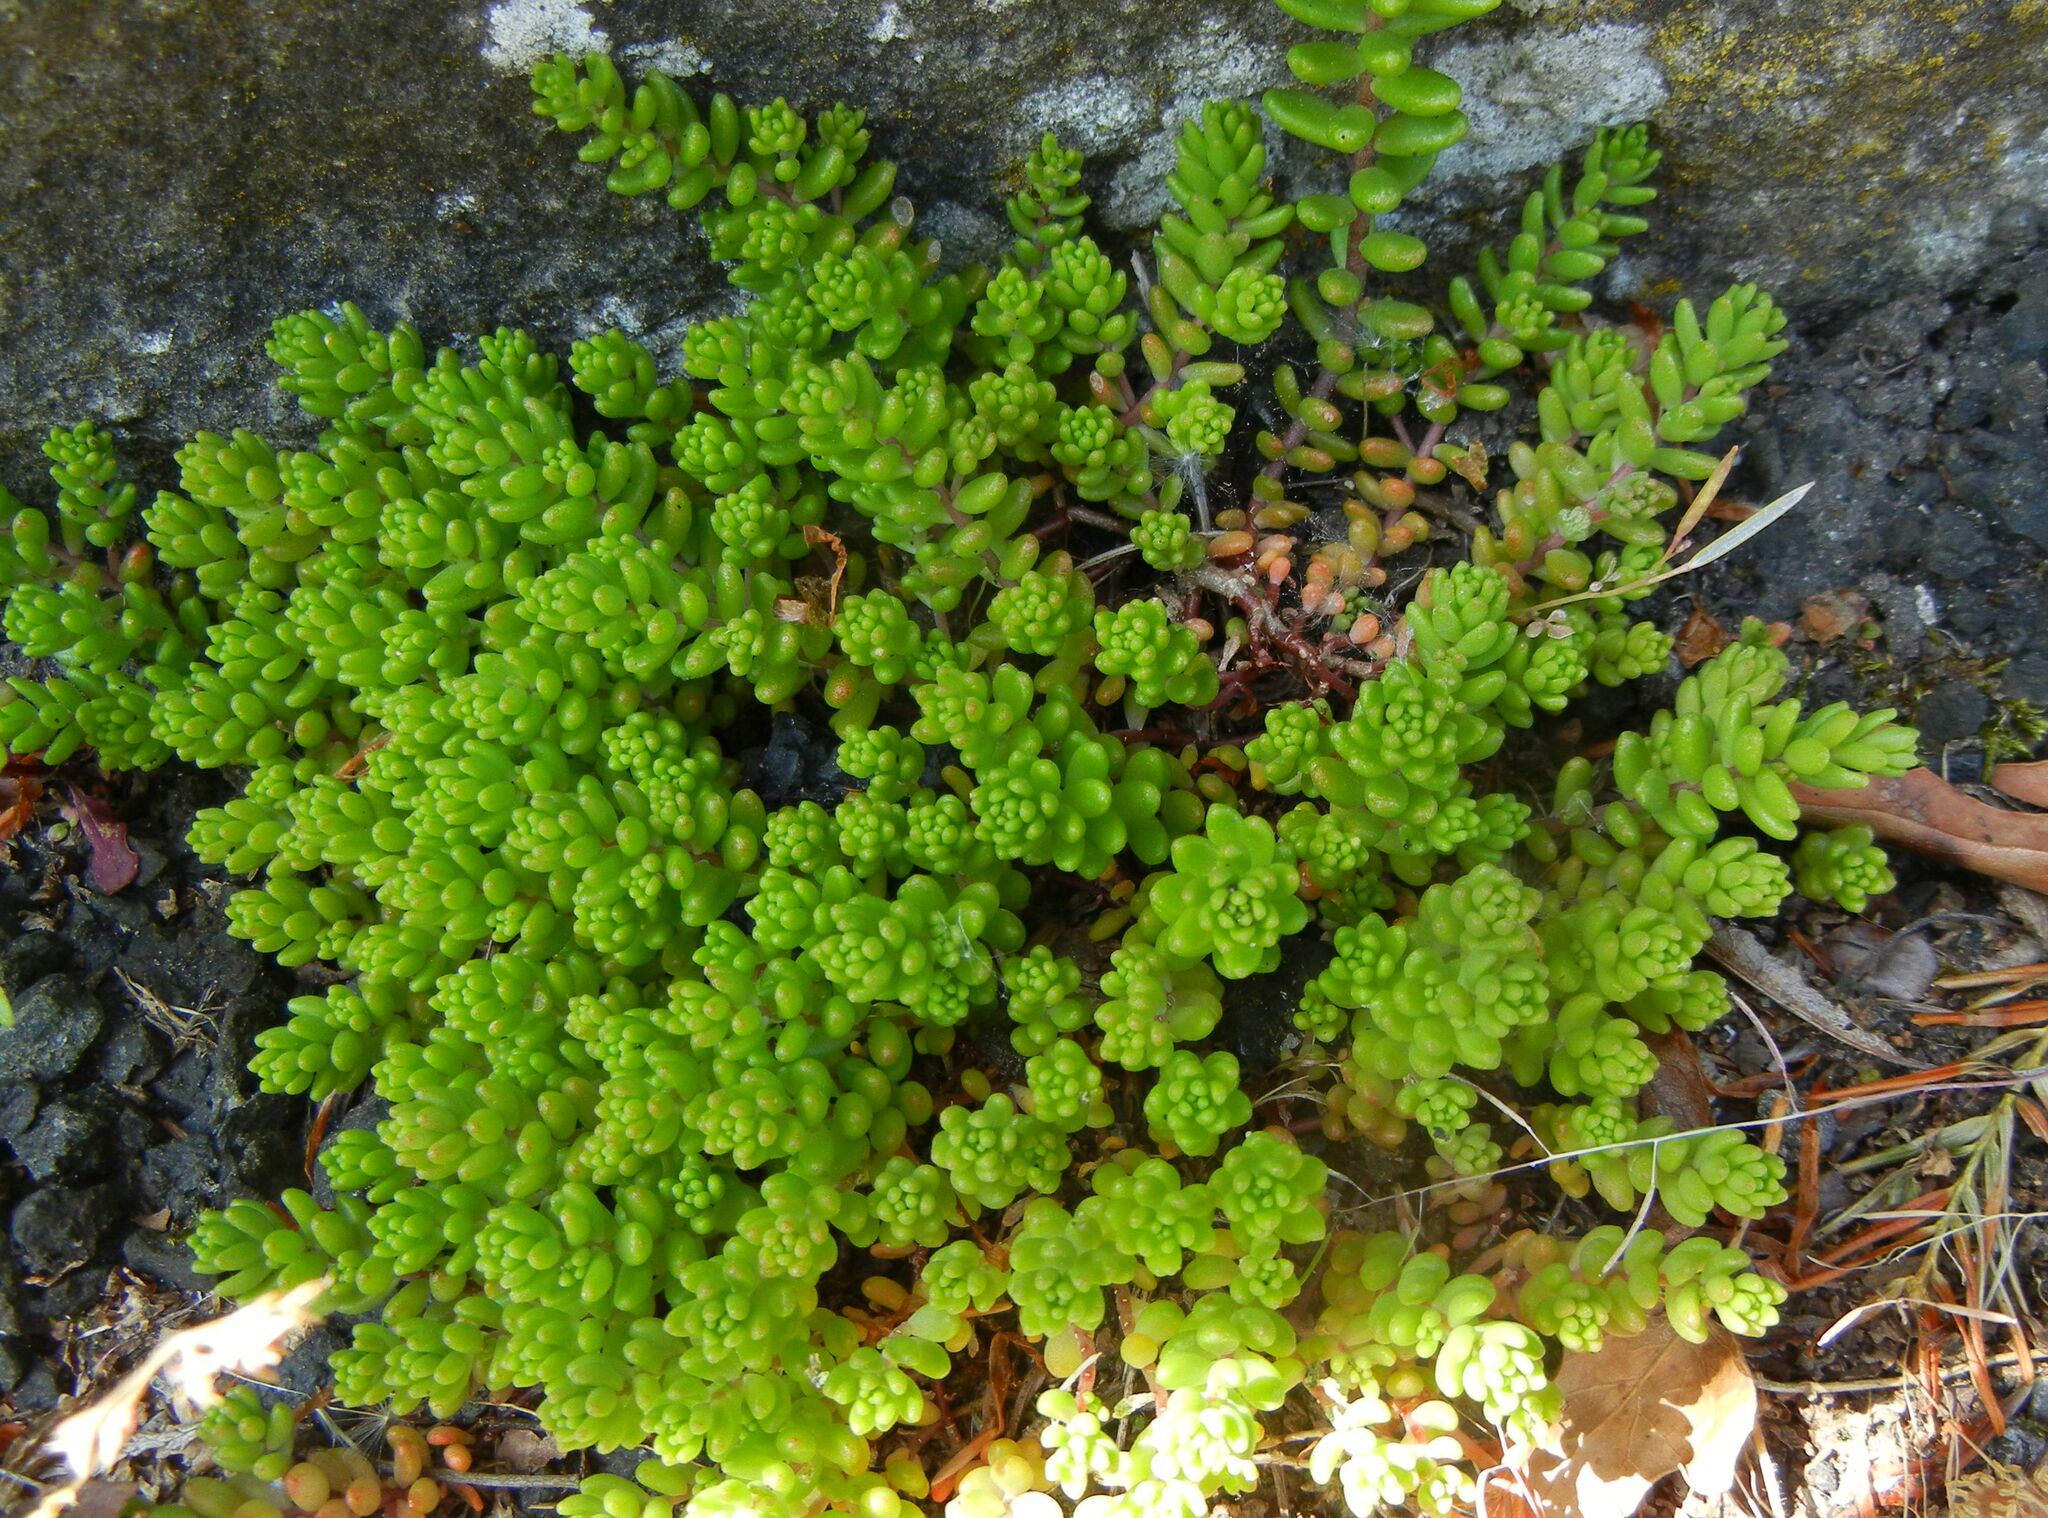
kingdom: Plantae
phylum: Tracheophyta
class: Magnoliopsida
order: Saxifragales
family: Crassulaceae
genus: Sedum
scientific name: Sedum album
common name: White stonecrop
